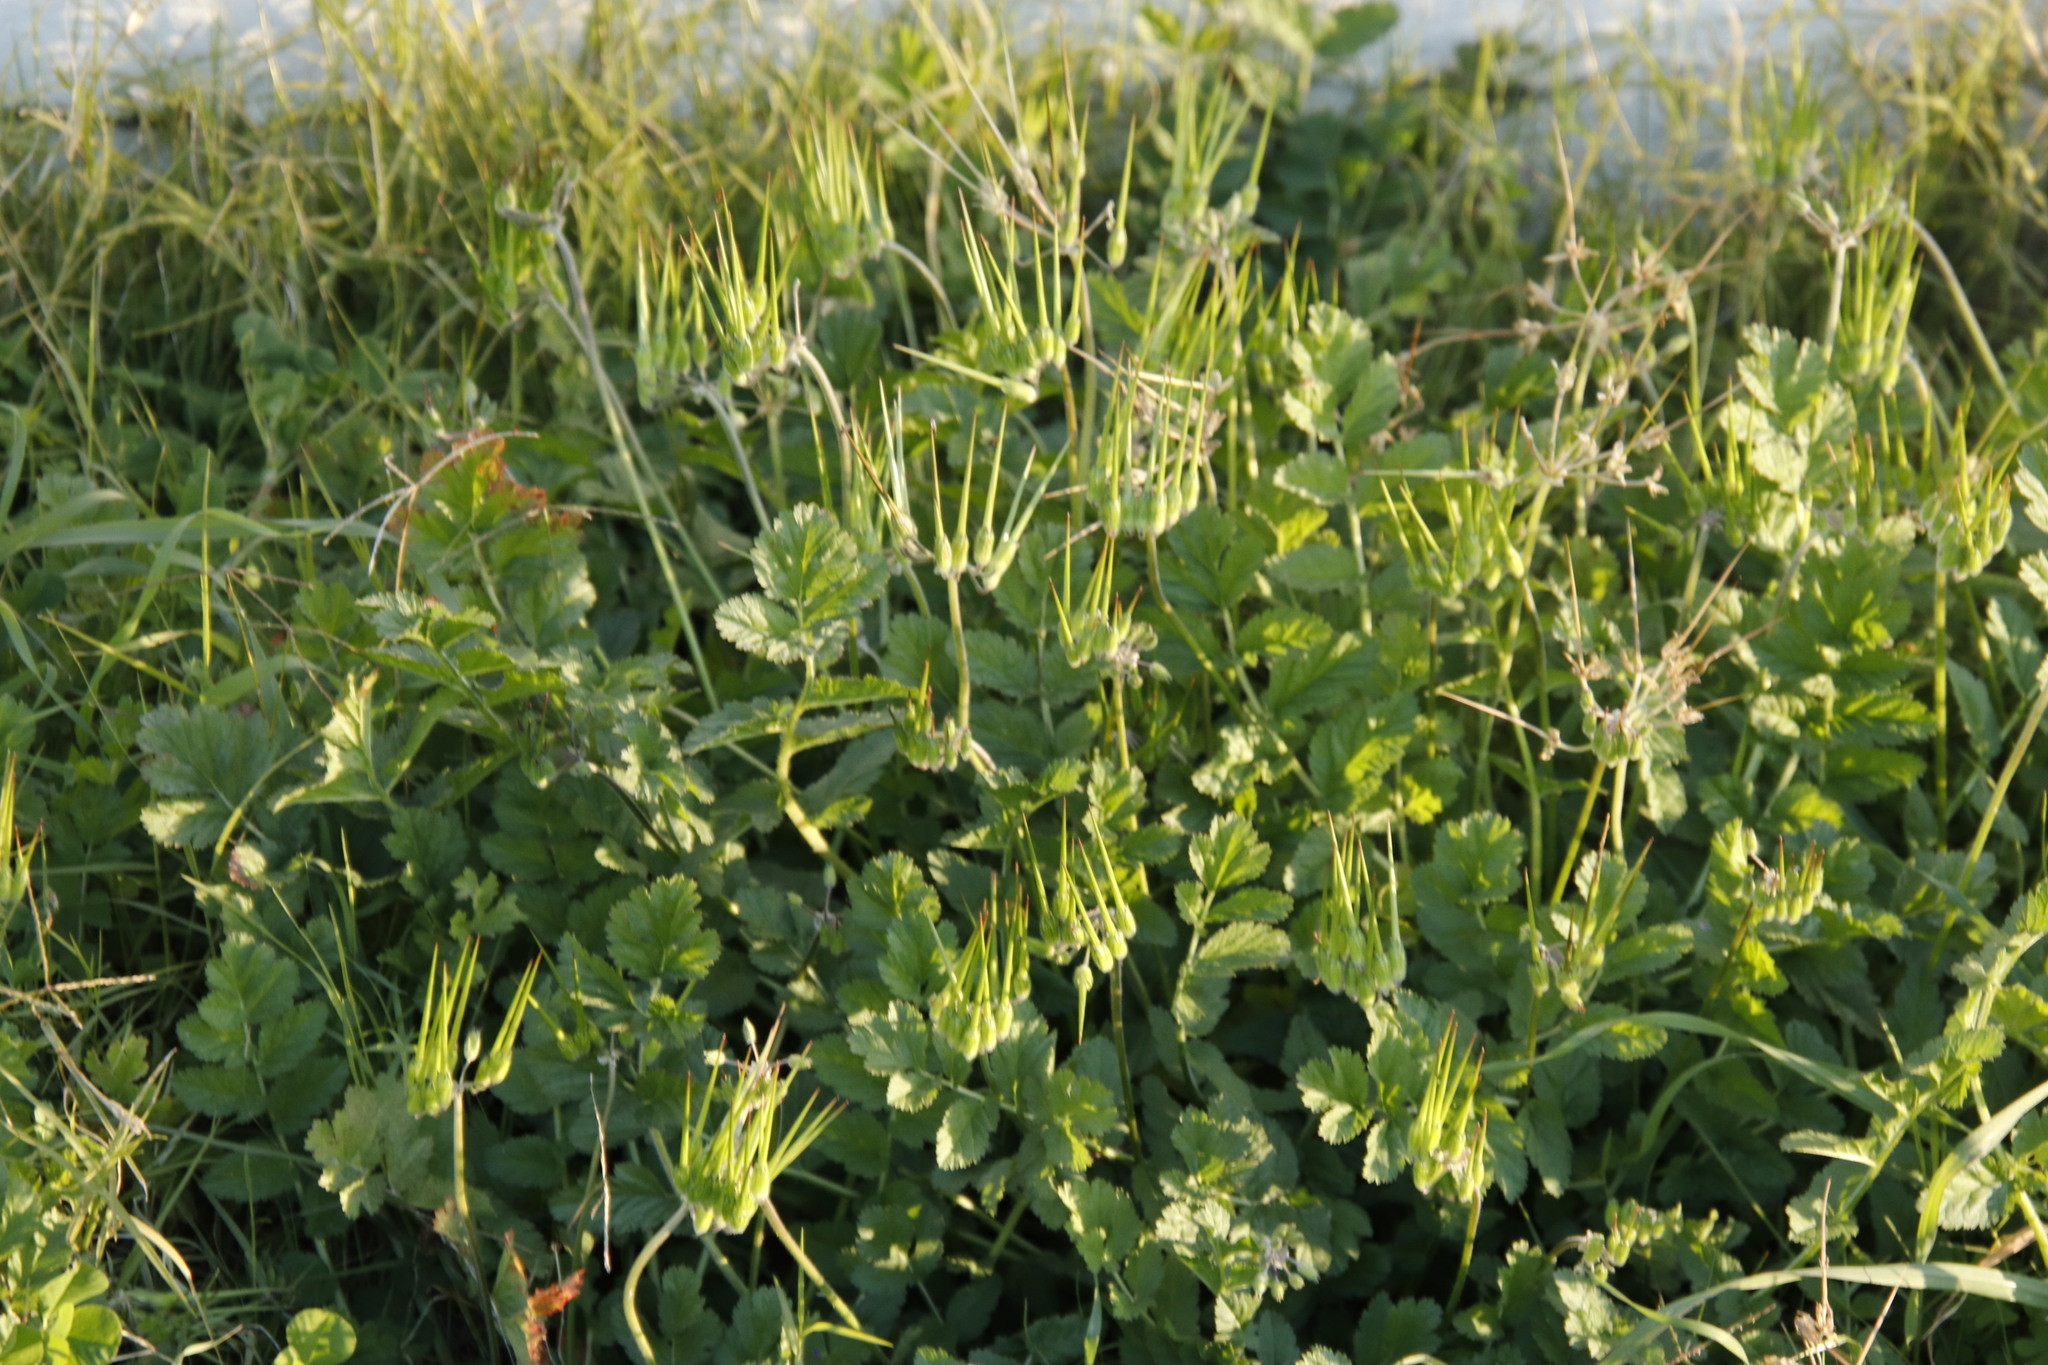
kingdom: Plantae
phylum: Tracheophyta
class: Magnoliopsida
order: Geraniales
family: Geraniaceae
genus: Erodium
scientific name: Erodium moschatum
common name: Musk stork's-bill
